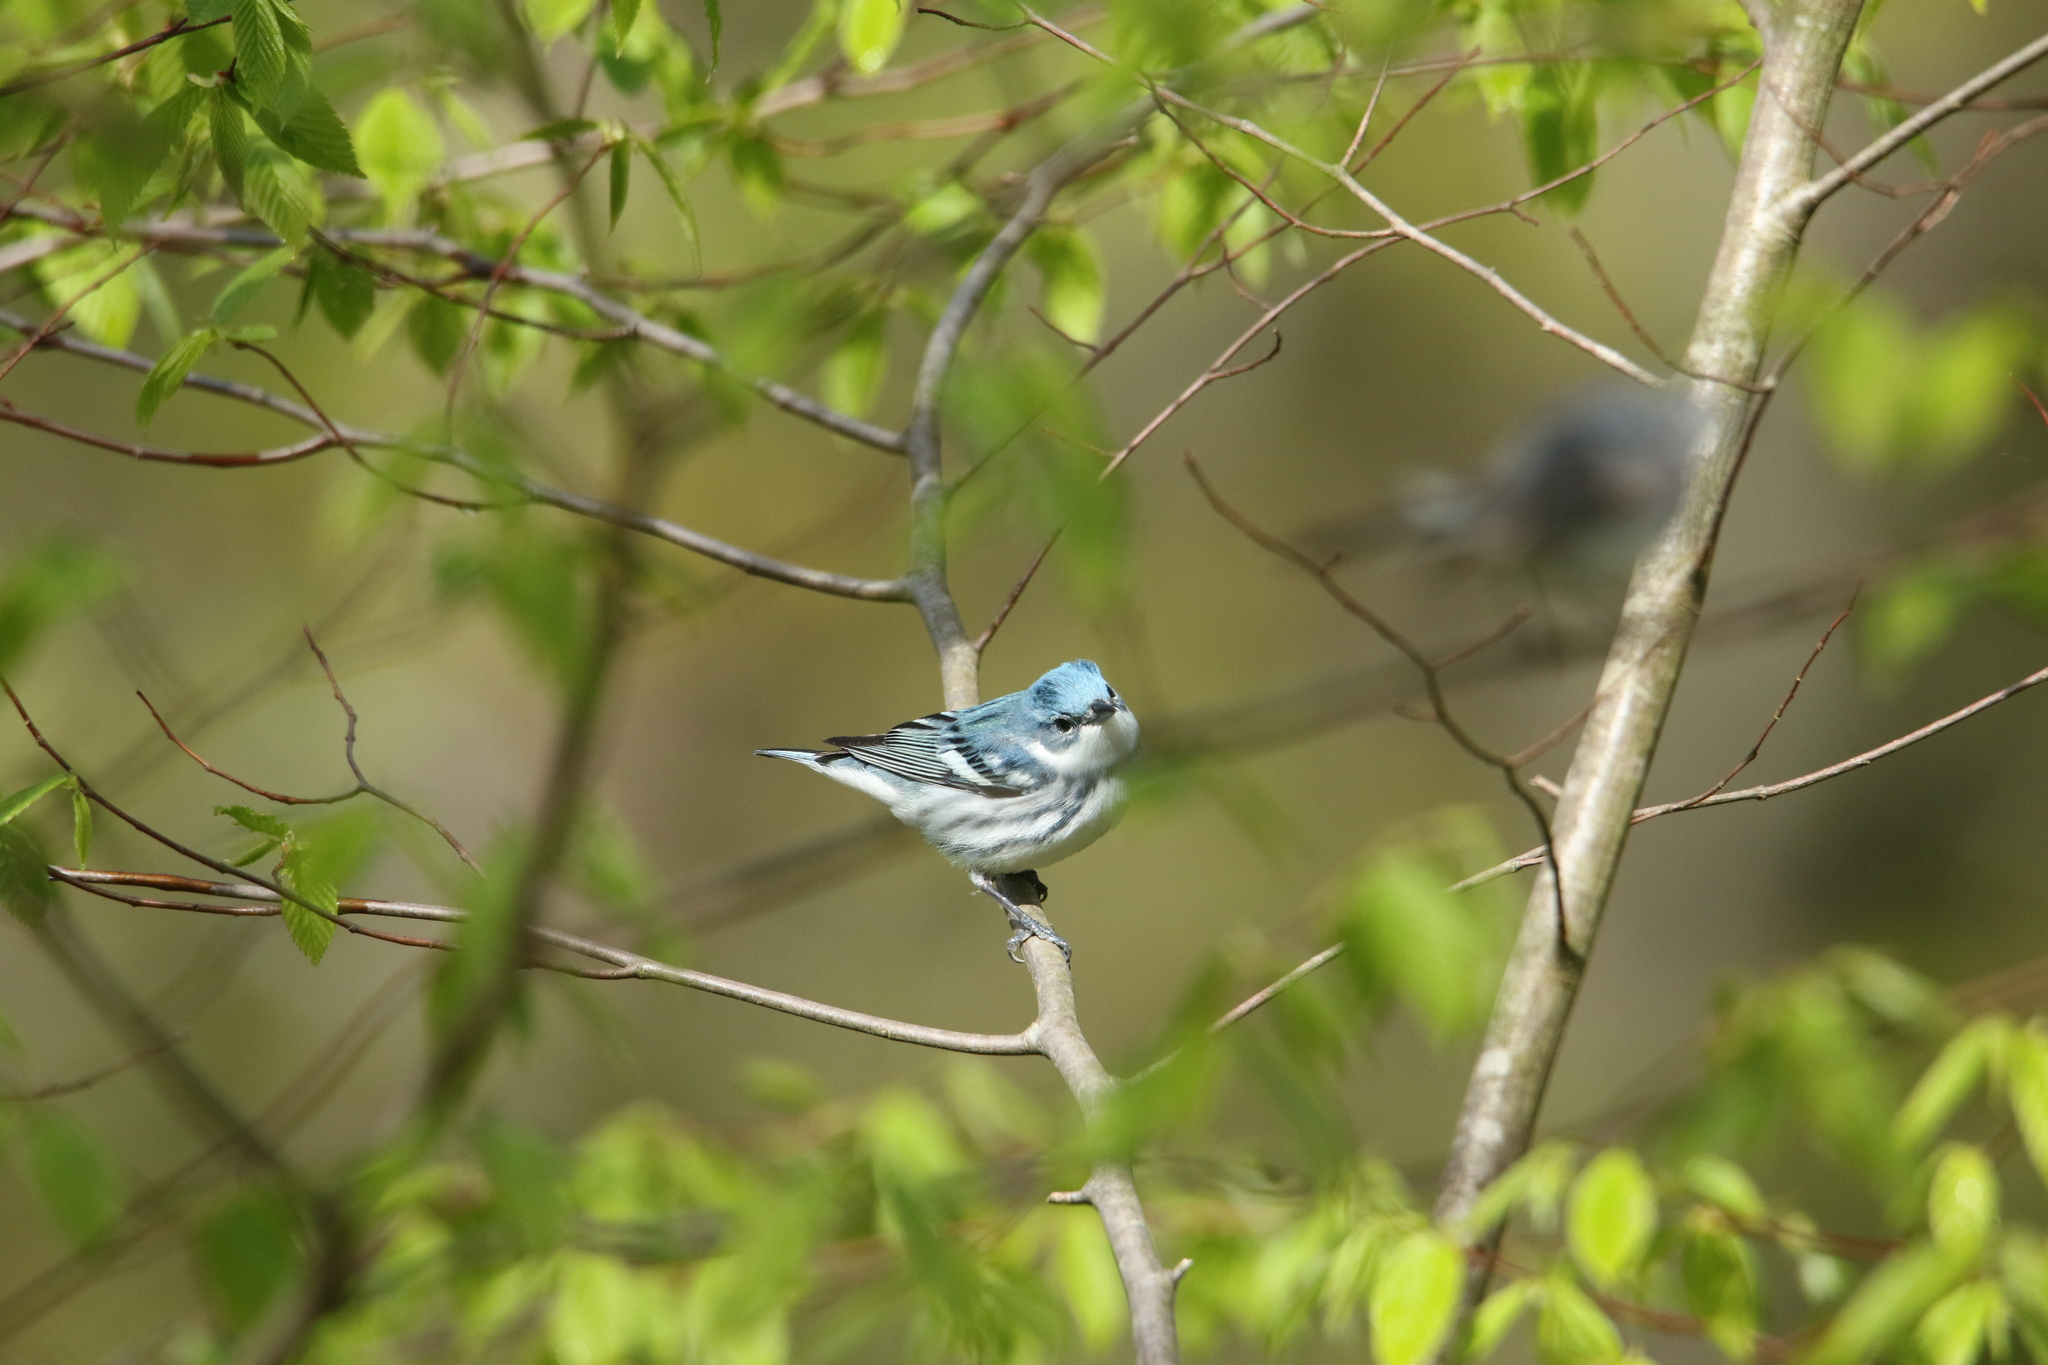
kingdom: Animalia
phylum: Chordata
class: Aves
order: Passeriformes
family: Parulidae
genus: Setophaga
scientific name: Setophaga cerulea
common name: Cerulean warbler
